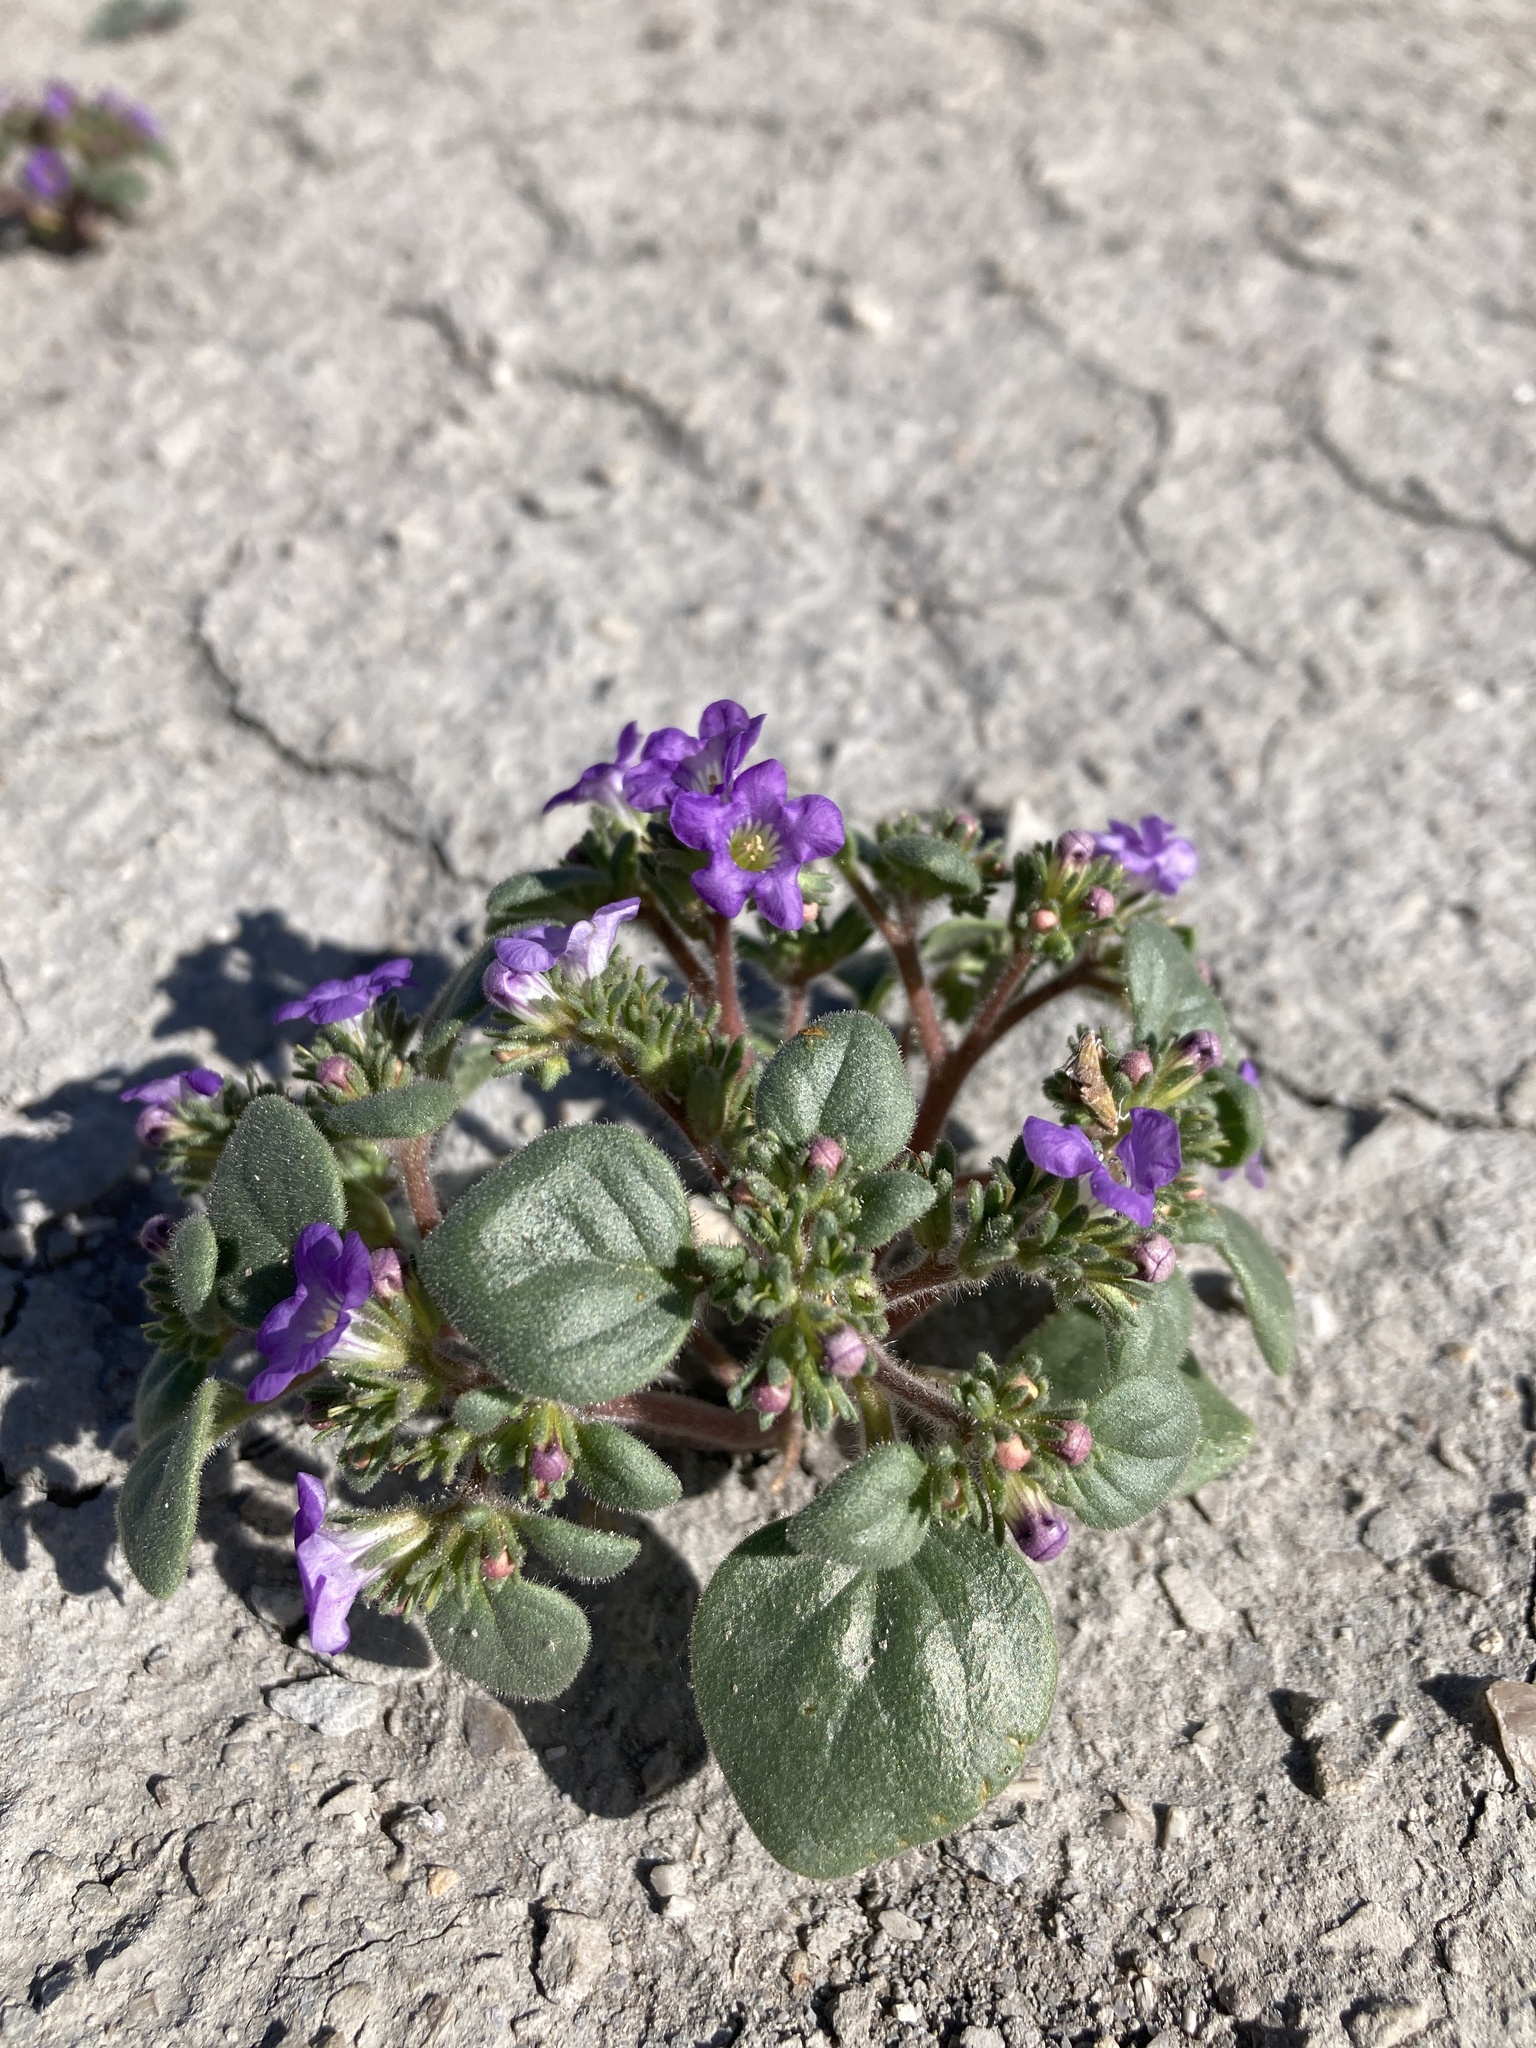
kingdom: Plantae
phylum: Tracheophyta
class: Magnoliopsida
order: Boraginales
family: Hydrophyllaceae
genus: Phacelia
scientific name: Phacelia demissa
